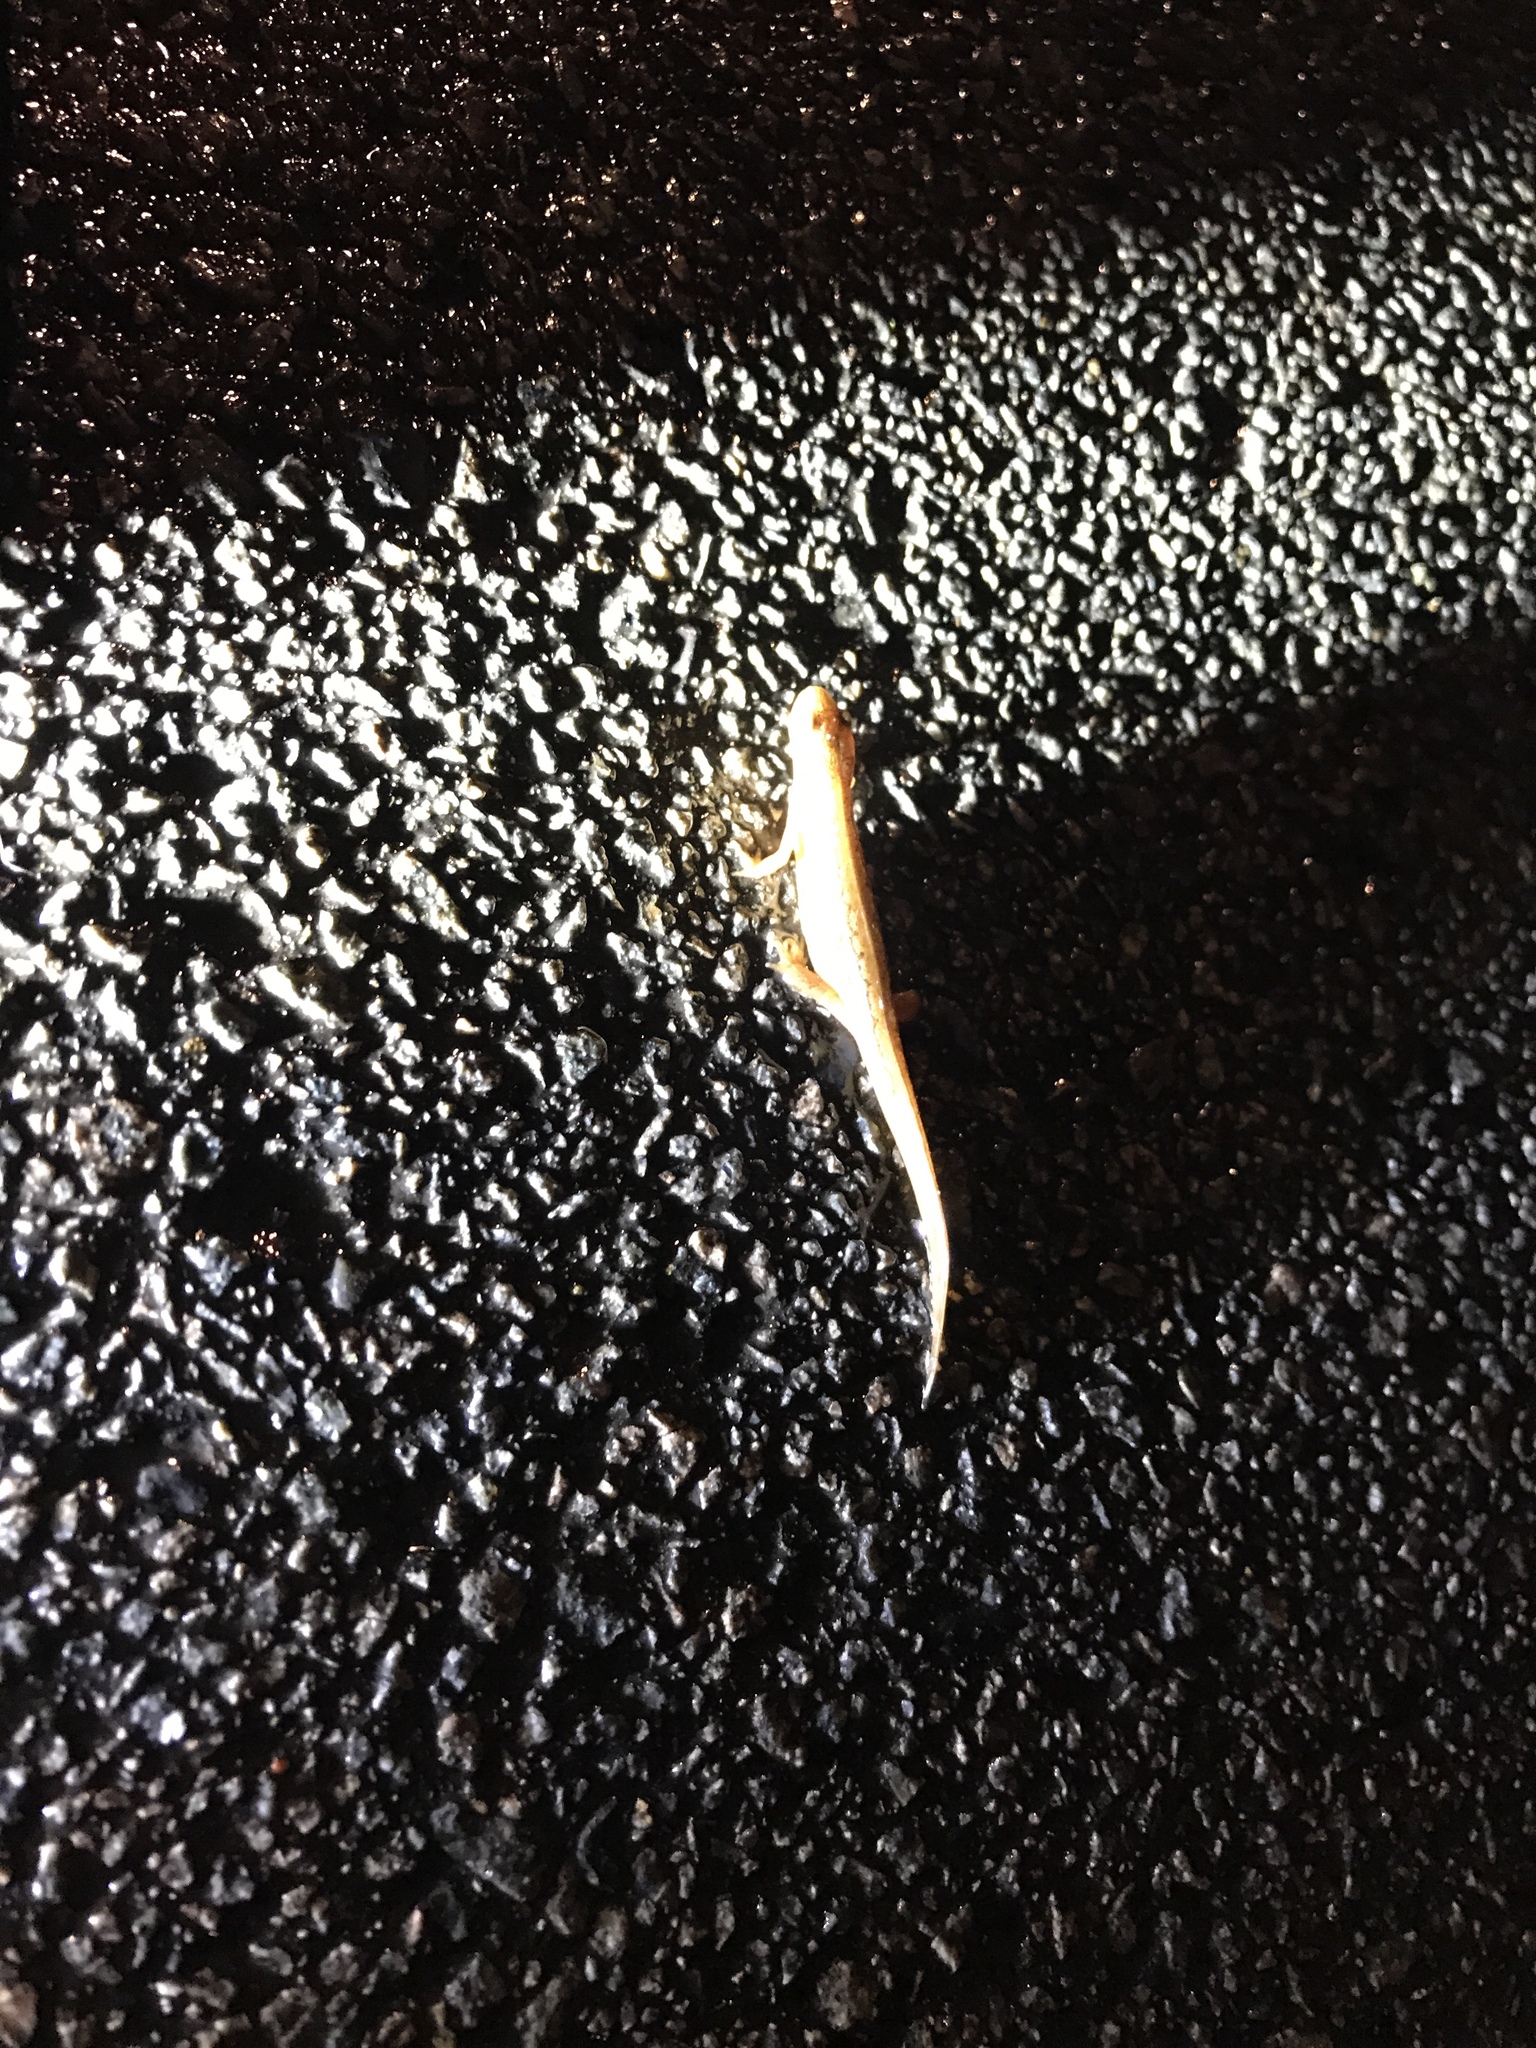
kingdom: Animalia
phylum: Chordata
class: Amphibia
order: Caudata
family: Salamandridae
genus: Lissotriton
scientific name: Lissotriton vulgaris
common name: Smooth newt
